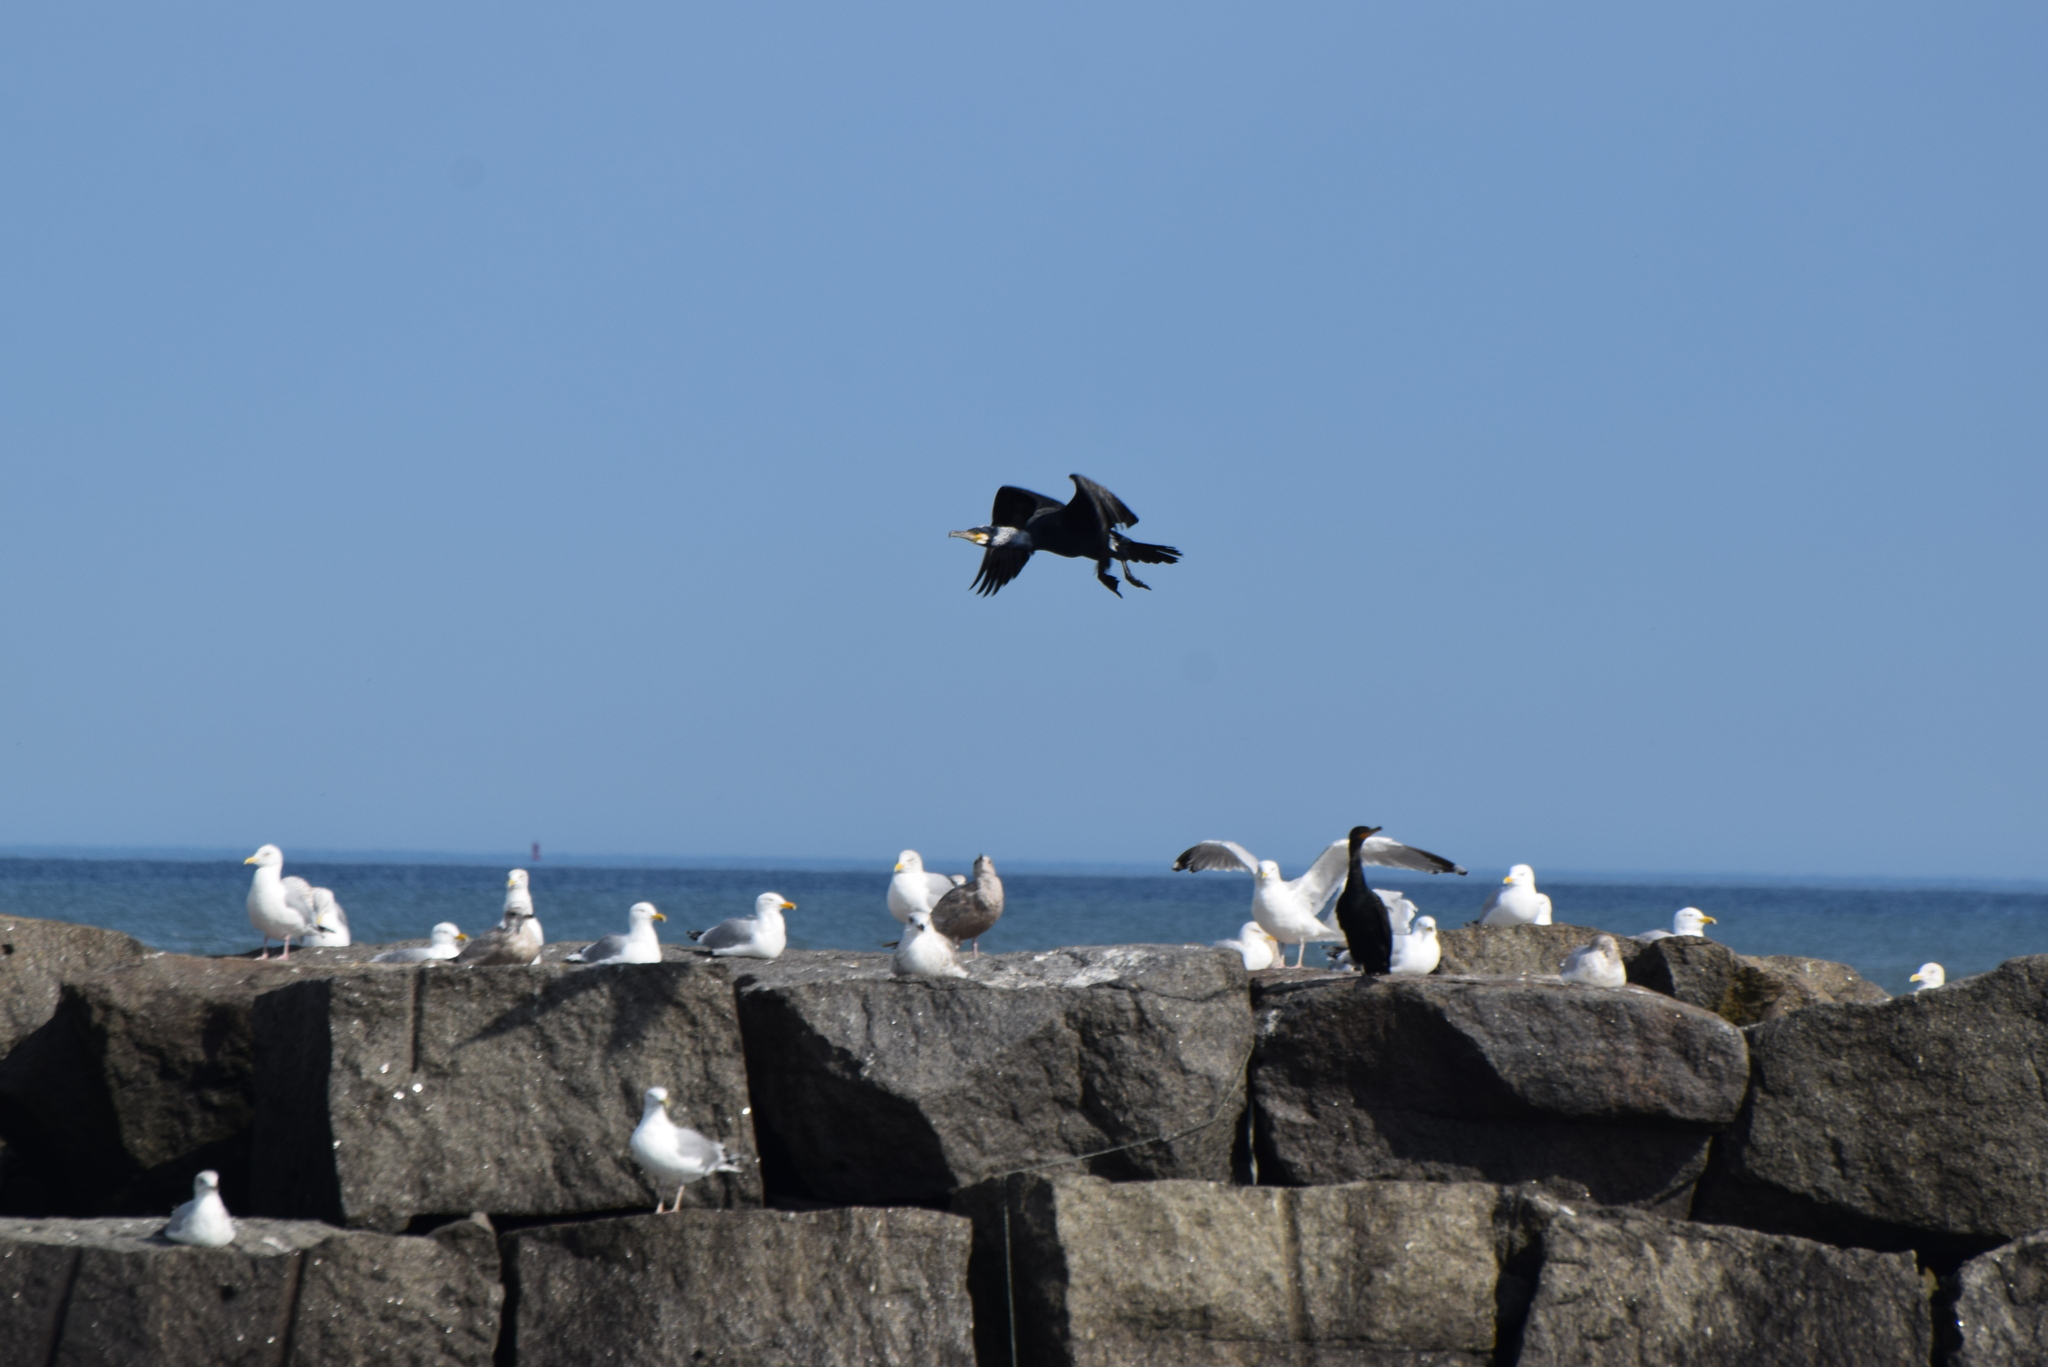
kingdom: Animalia
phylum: Chordata
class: Aves
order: Suliformes
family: Phalacrocoracidae
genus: Phalacrocorax
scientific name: Phalacrocorax carbo
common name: Great cormorant
